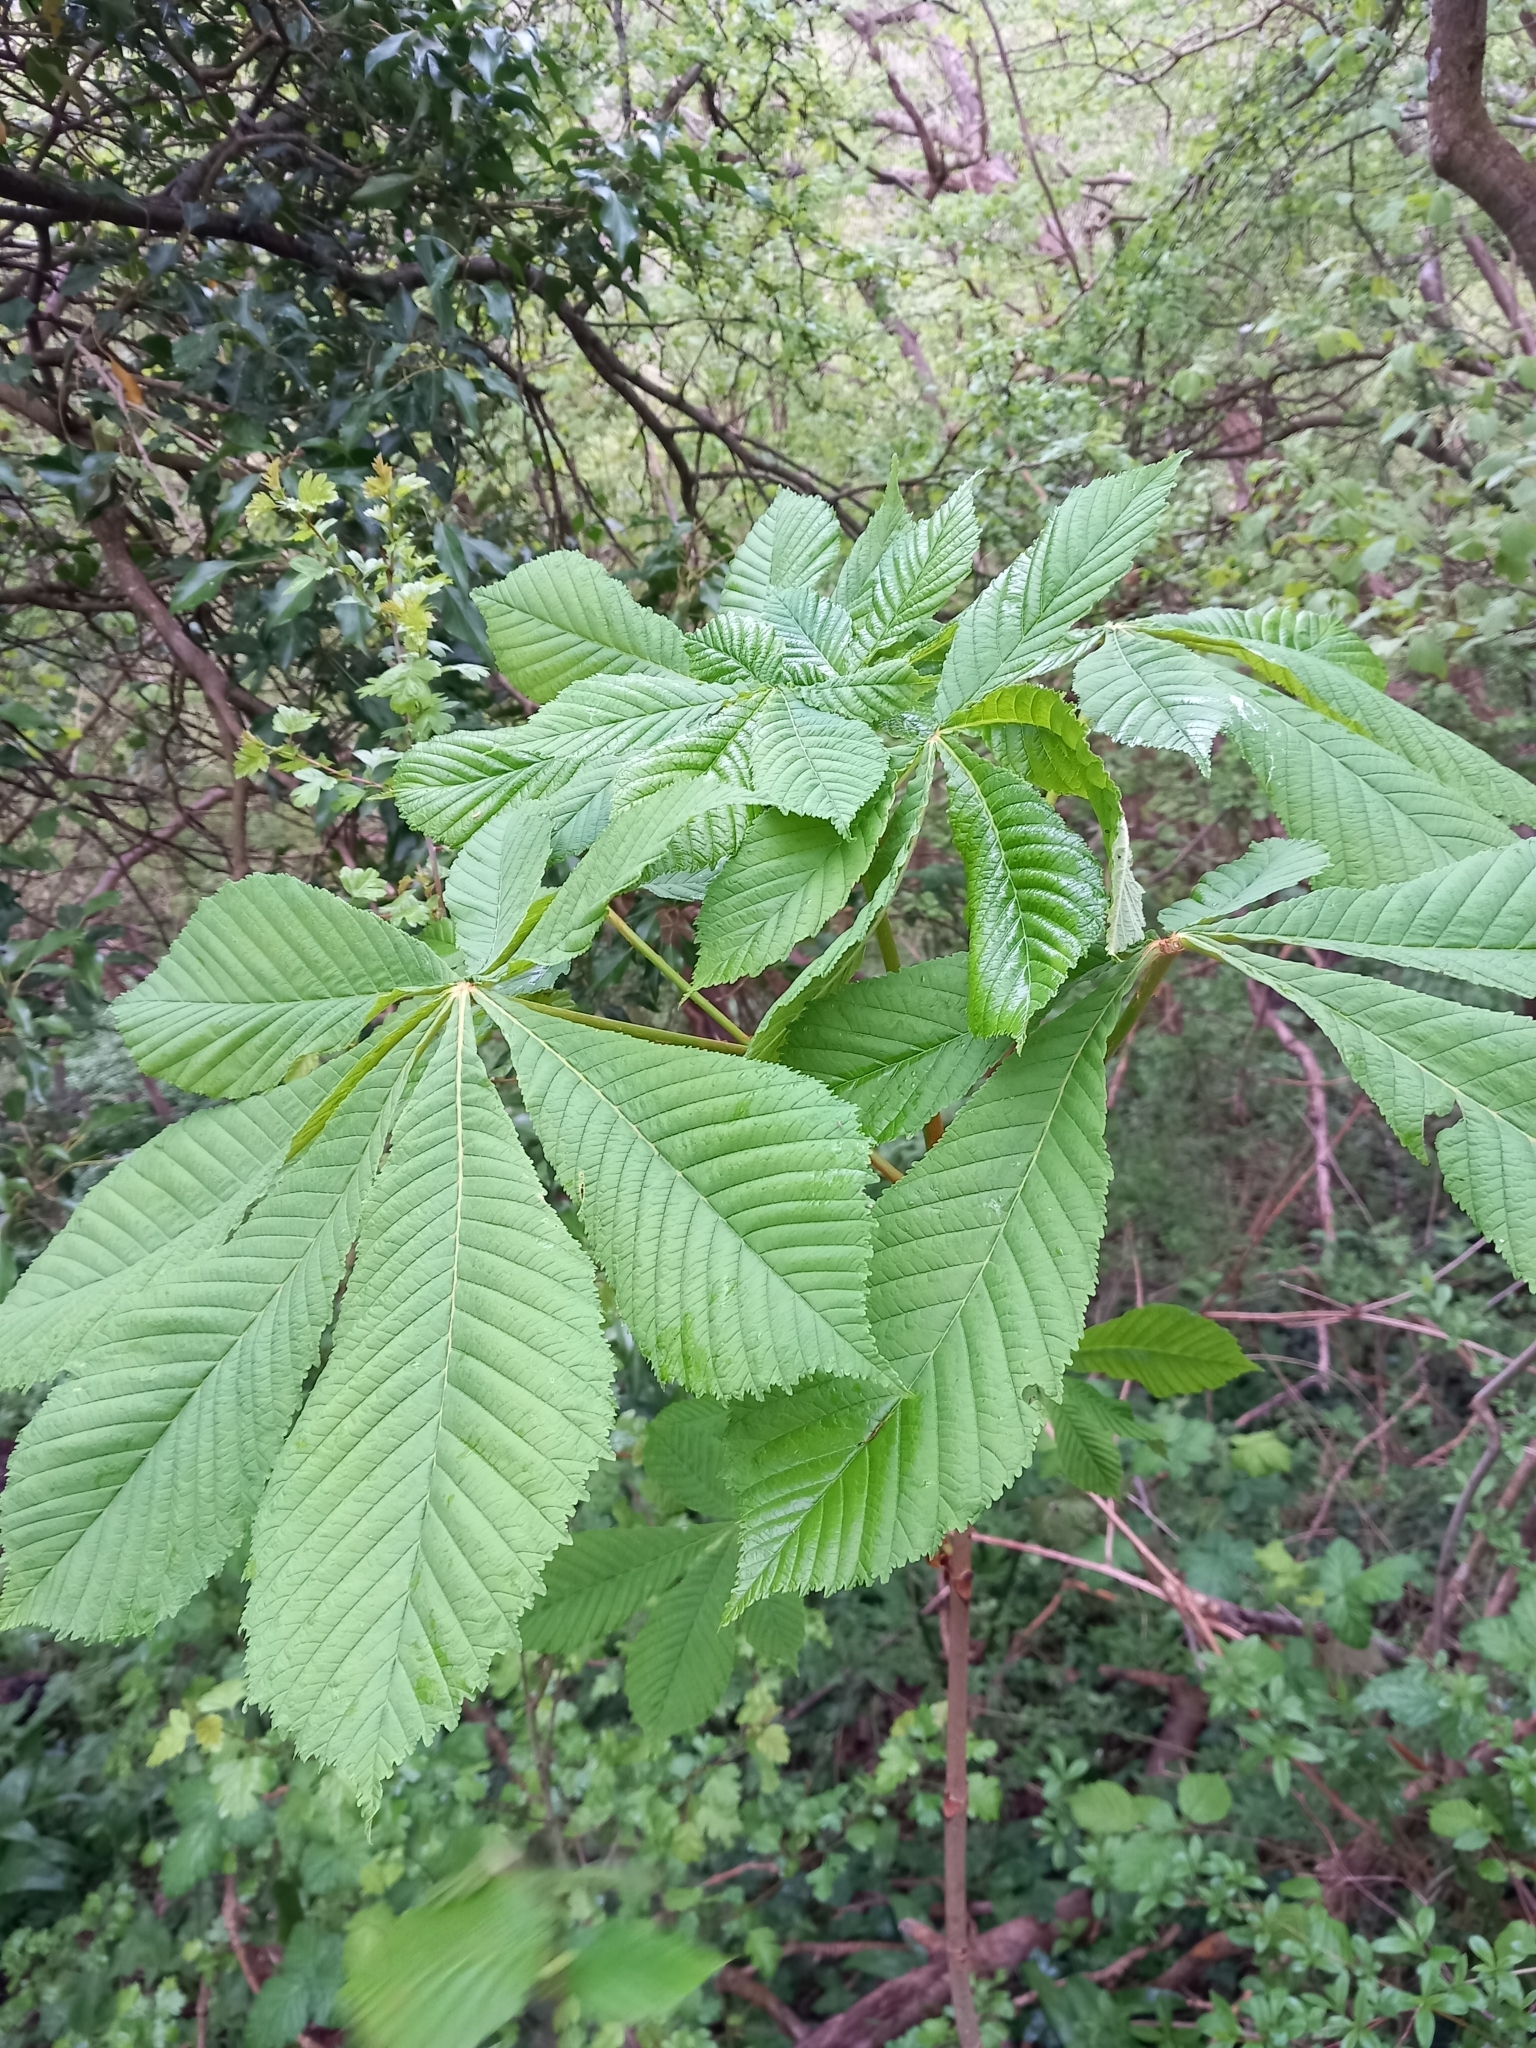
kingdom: Plantae
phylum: Tracheophyta
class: Magnoliopsida
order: Sapindales
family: Sapindaceae
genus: Aesculus
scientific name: Aesculus hippocastanum
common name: Horse-chestnut
